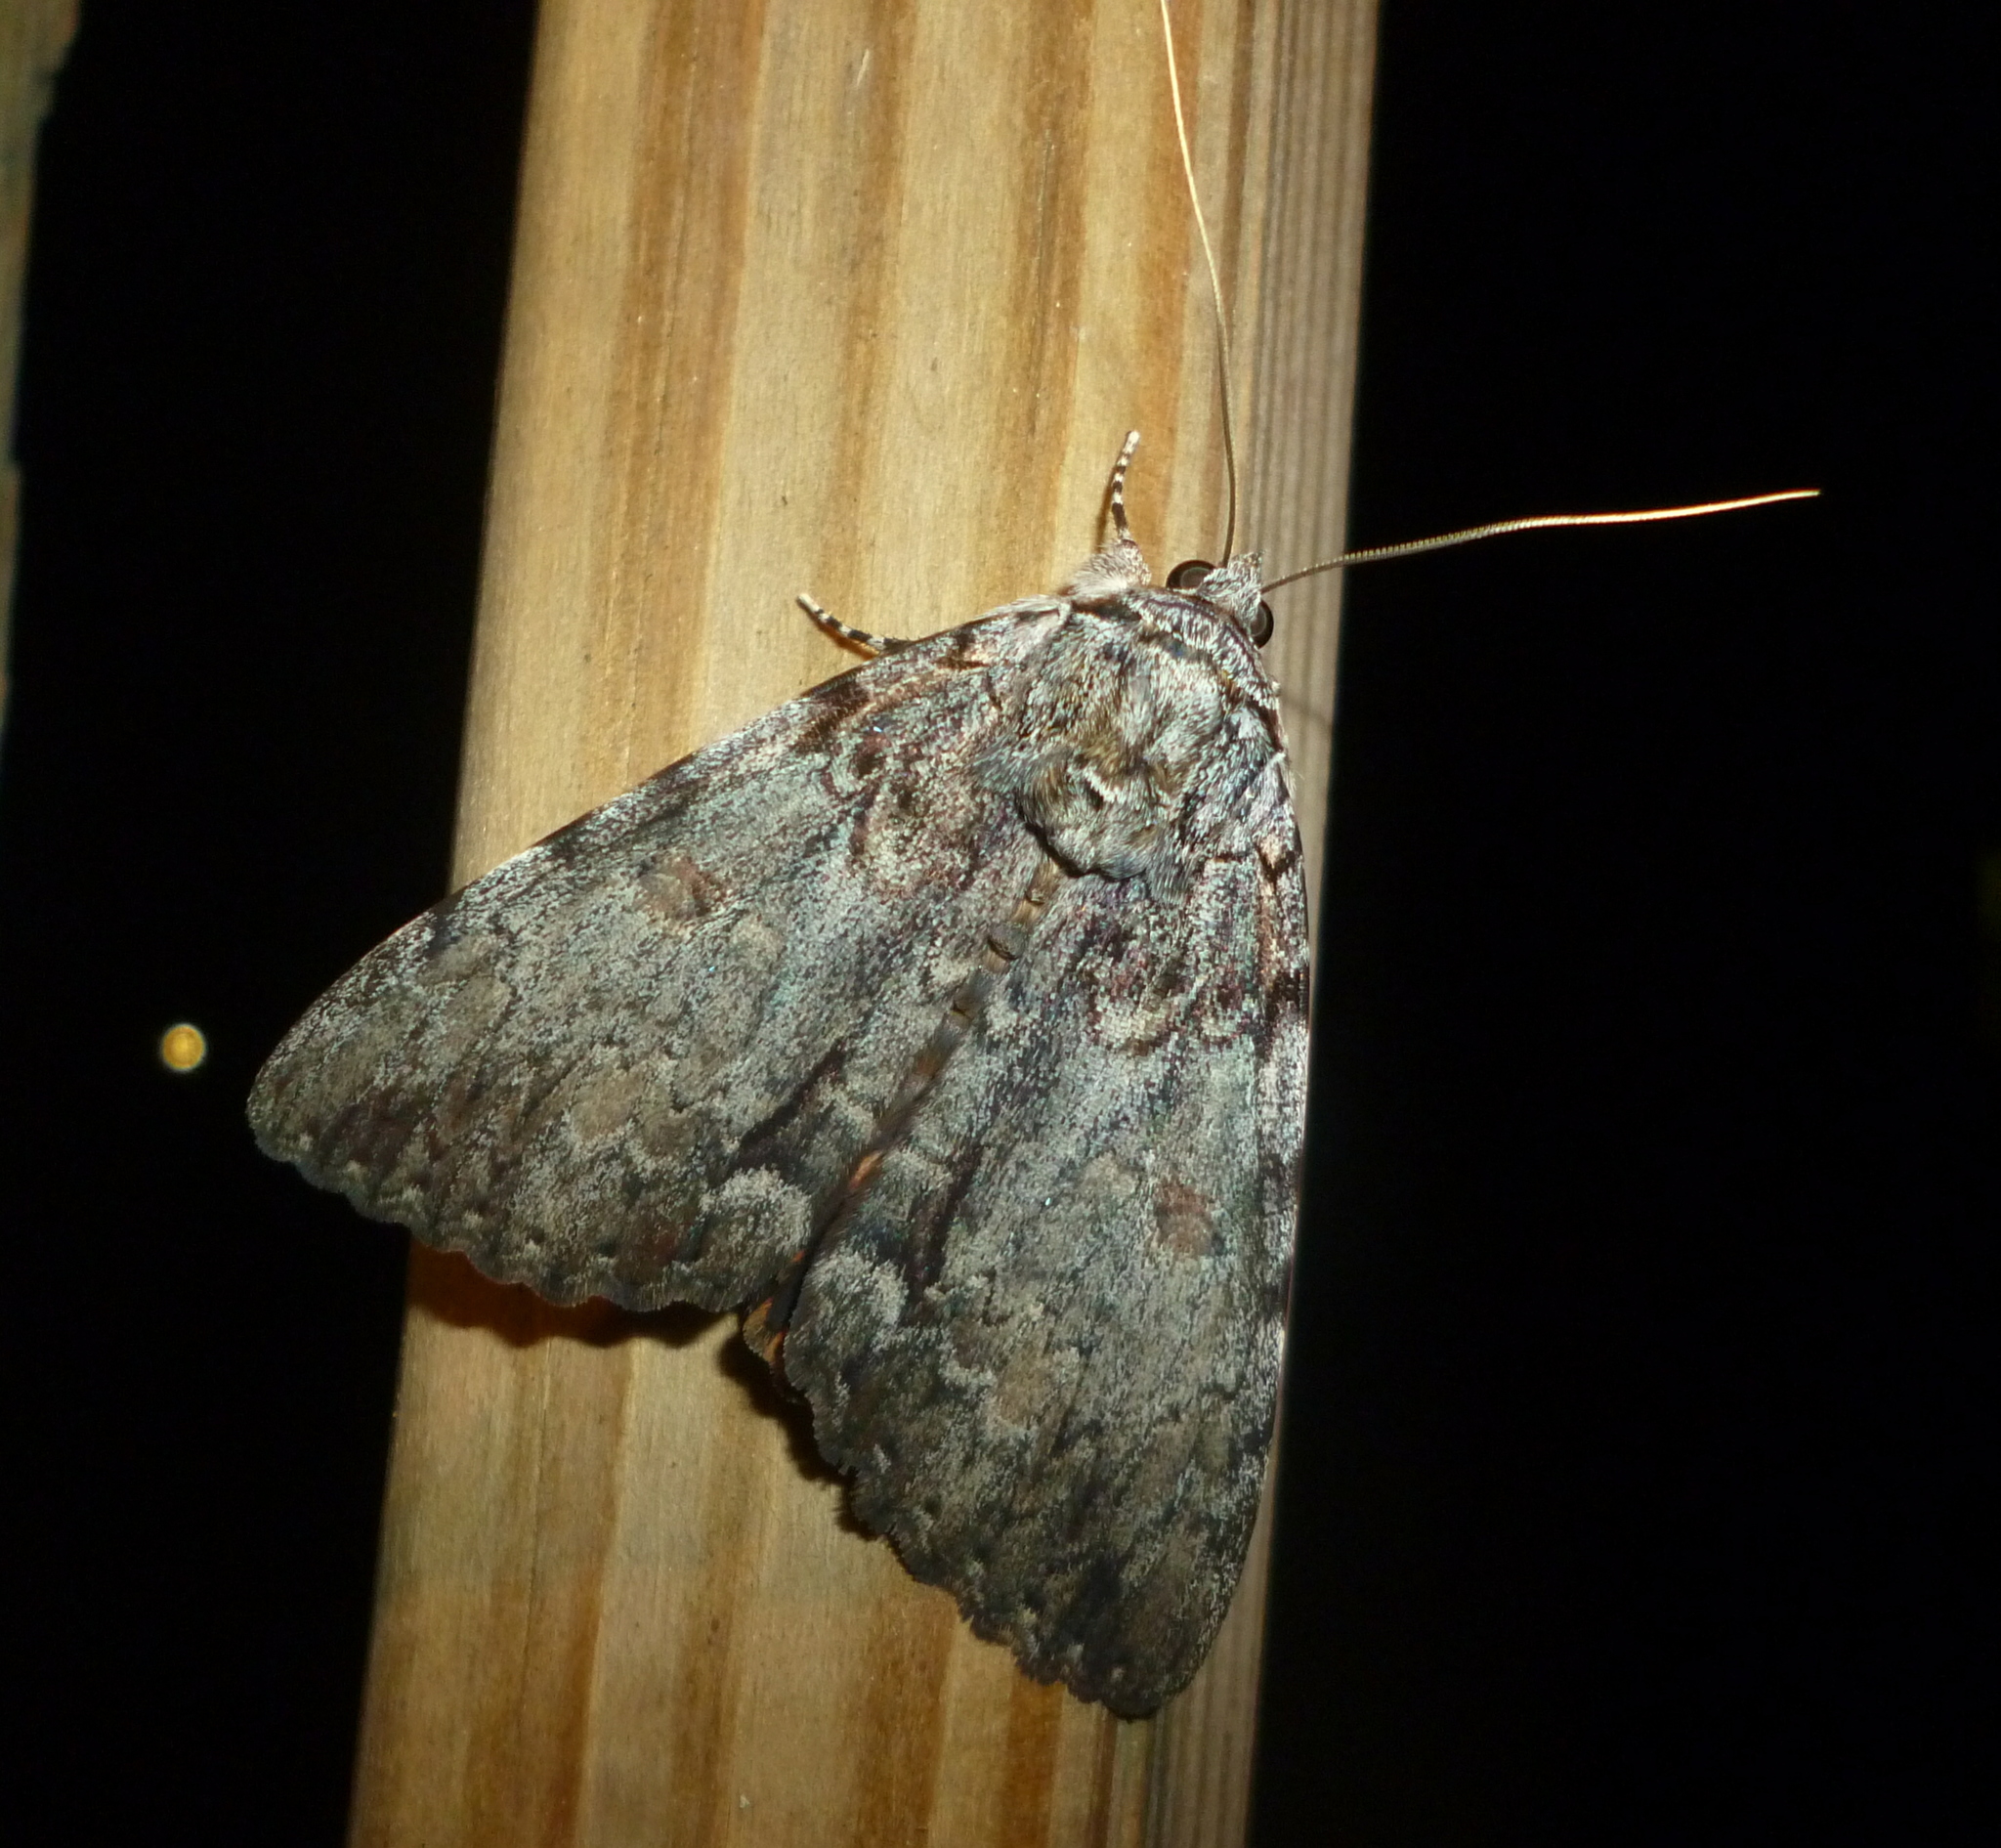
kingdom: Animalia
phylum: Arthropoda
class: Insecta
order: Lepidoptera
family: Erebidae
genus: Catocala
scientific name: Catocala palaeogama
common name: Oldwife underwing
